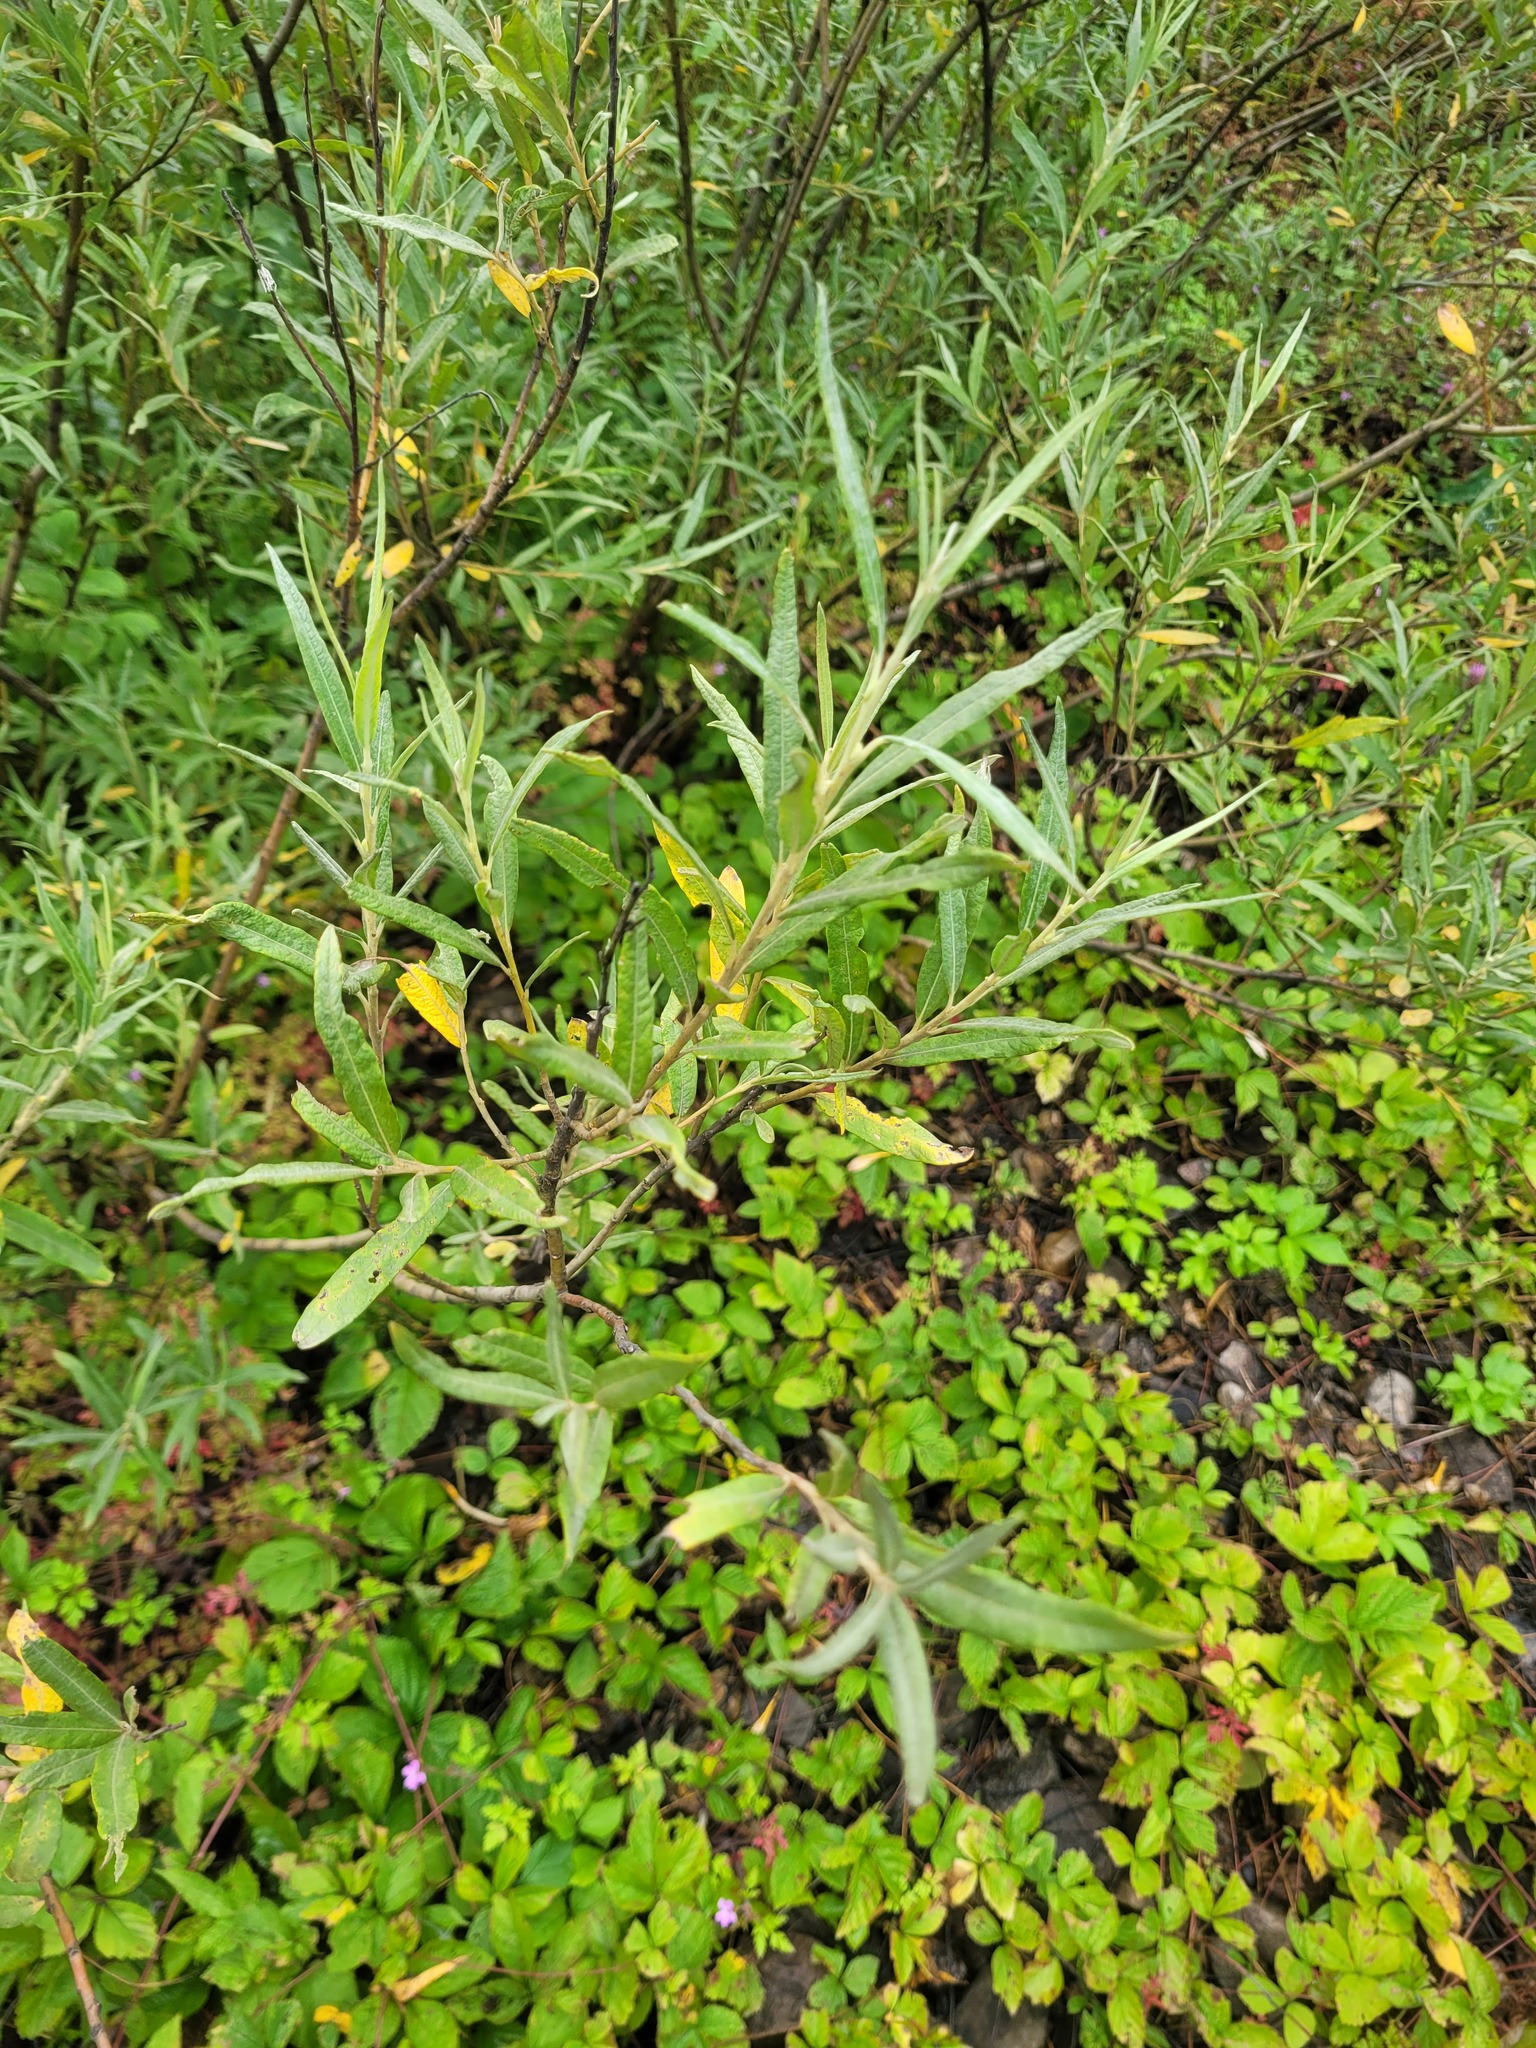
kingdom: Plantae
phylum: Tracheophyta
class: Magnoliopsida
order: Malpighiales
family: Salicaceae
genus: Salix
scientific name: Salix viminalis
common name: Osier
